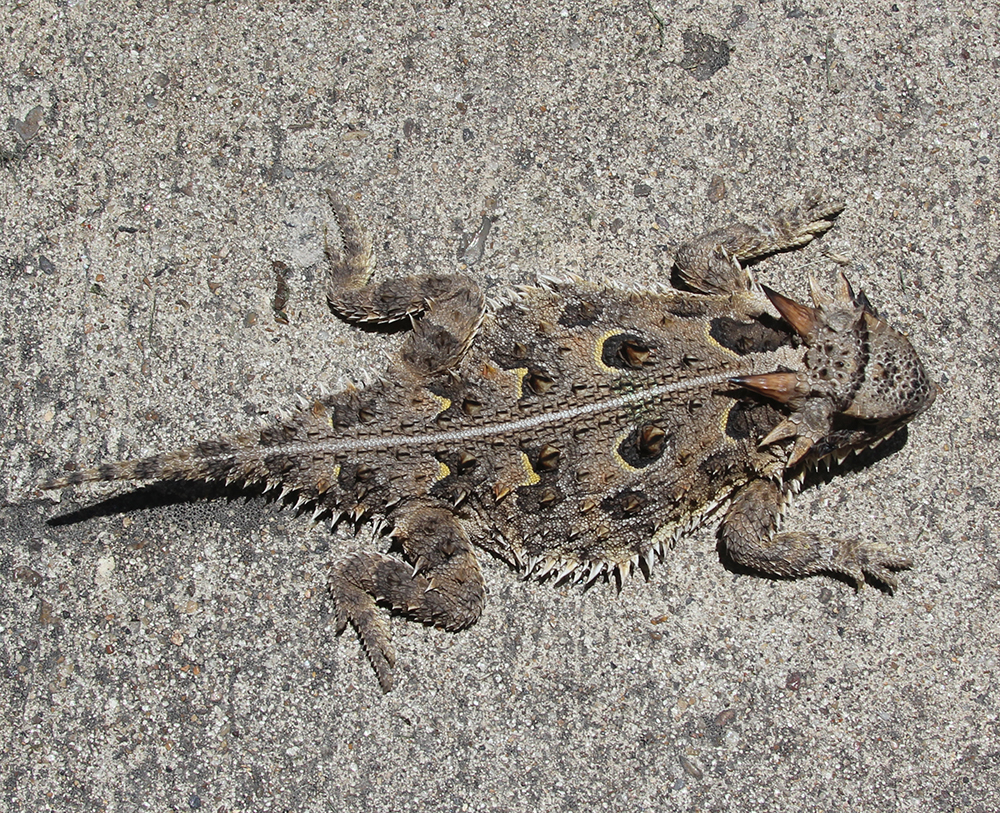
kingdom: Animalia
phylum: Chordata
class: Squamata
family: Phrynosomatidae
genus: Phrynosoma
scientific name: Phrynosoma cornutum
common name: Texas horned lizard
